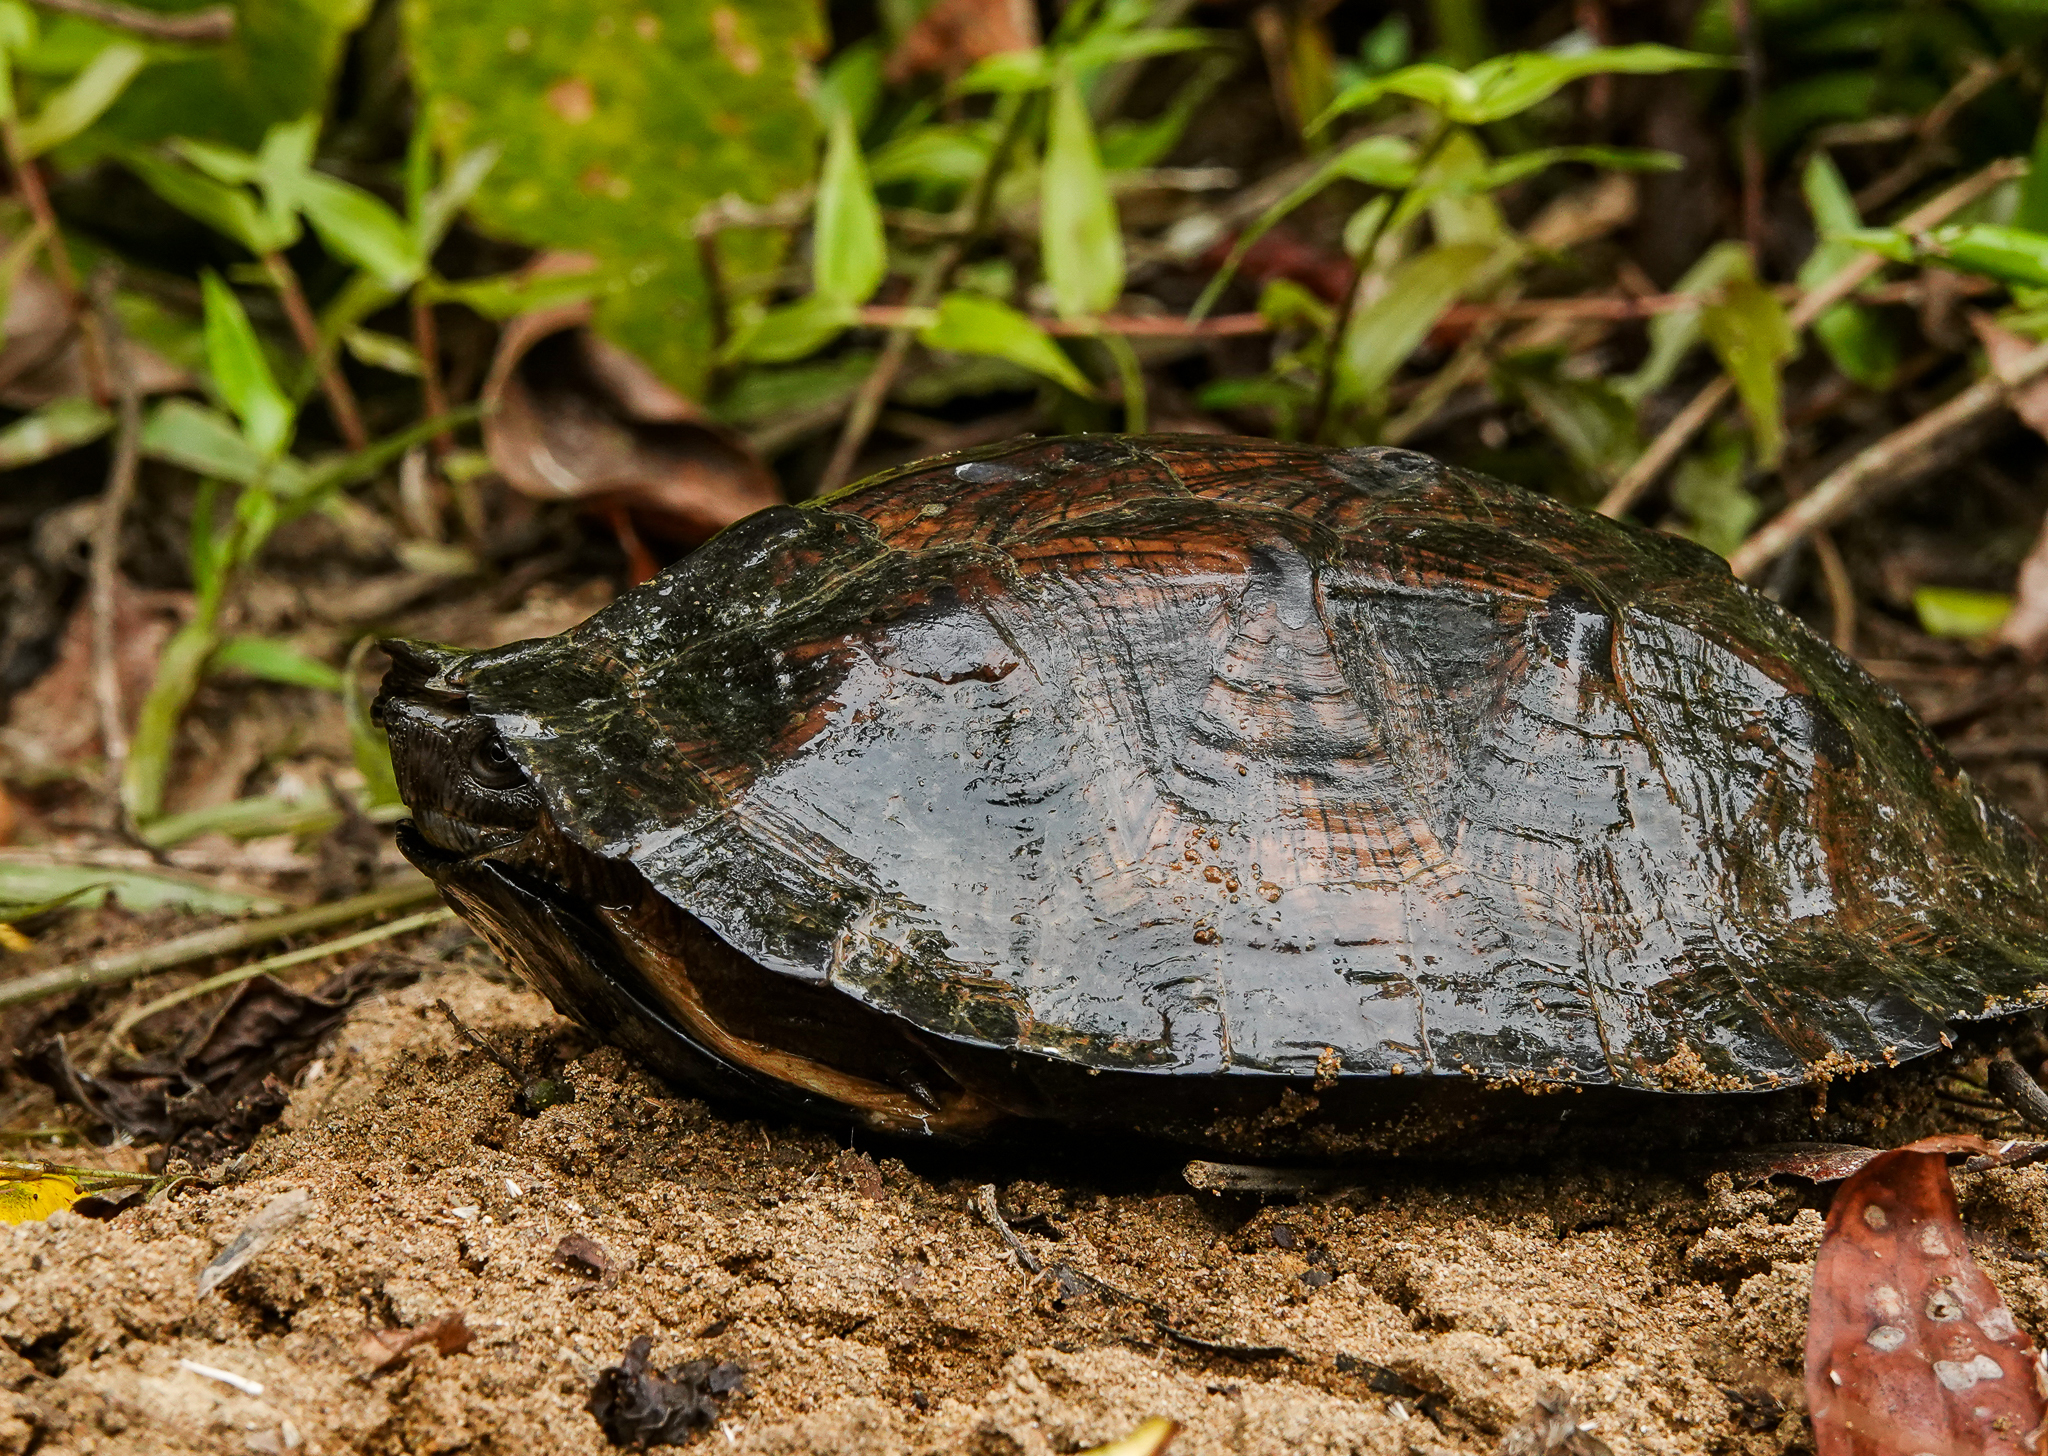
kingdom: Animalia
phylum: Chordata
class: Testudines
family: Geoemydidae
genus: Cyclemys
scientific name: Cyclemys gemeli
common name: Assam leaf turtle
